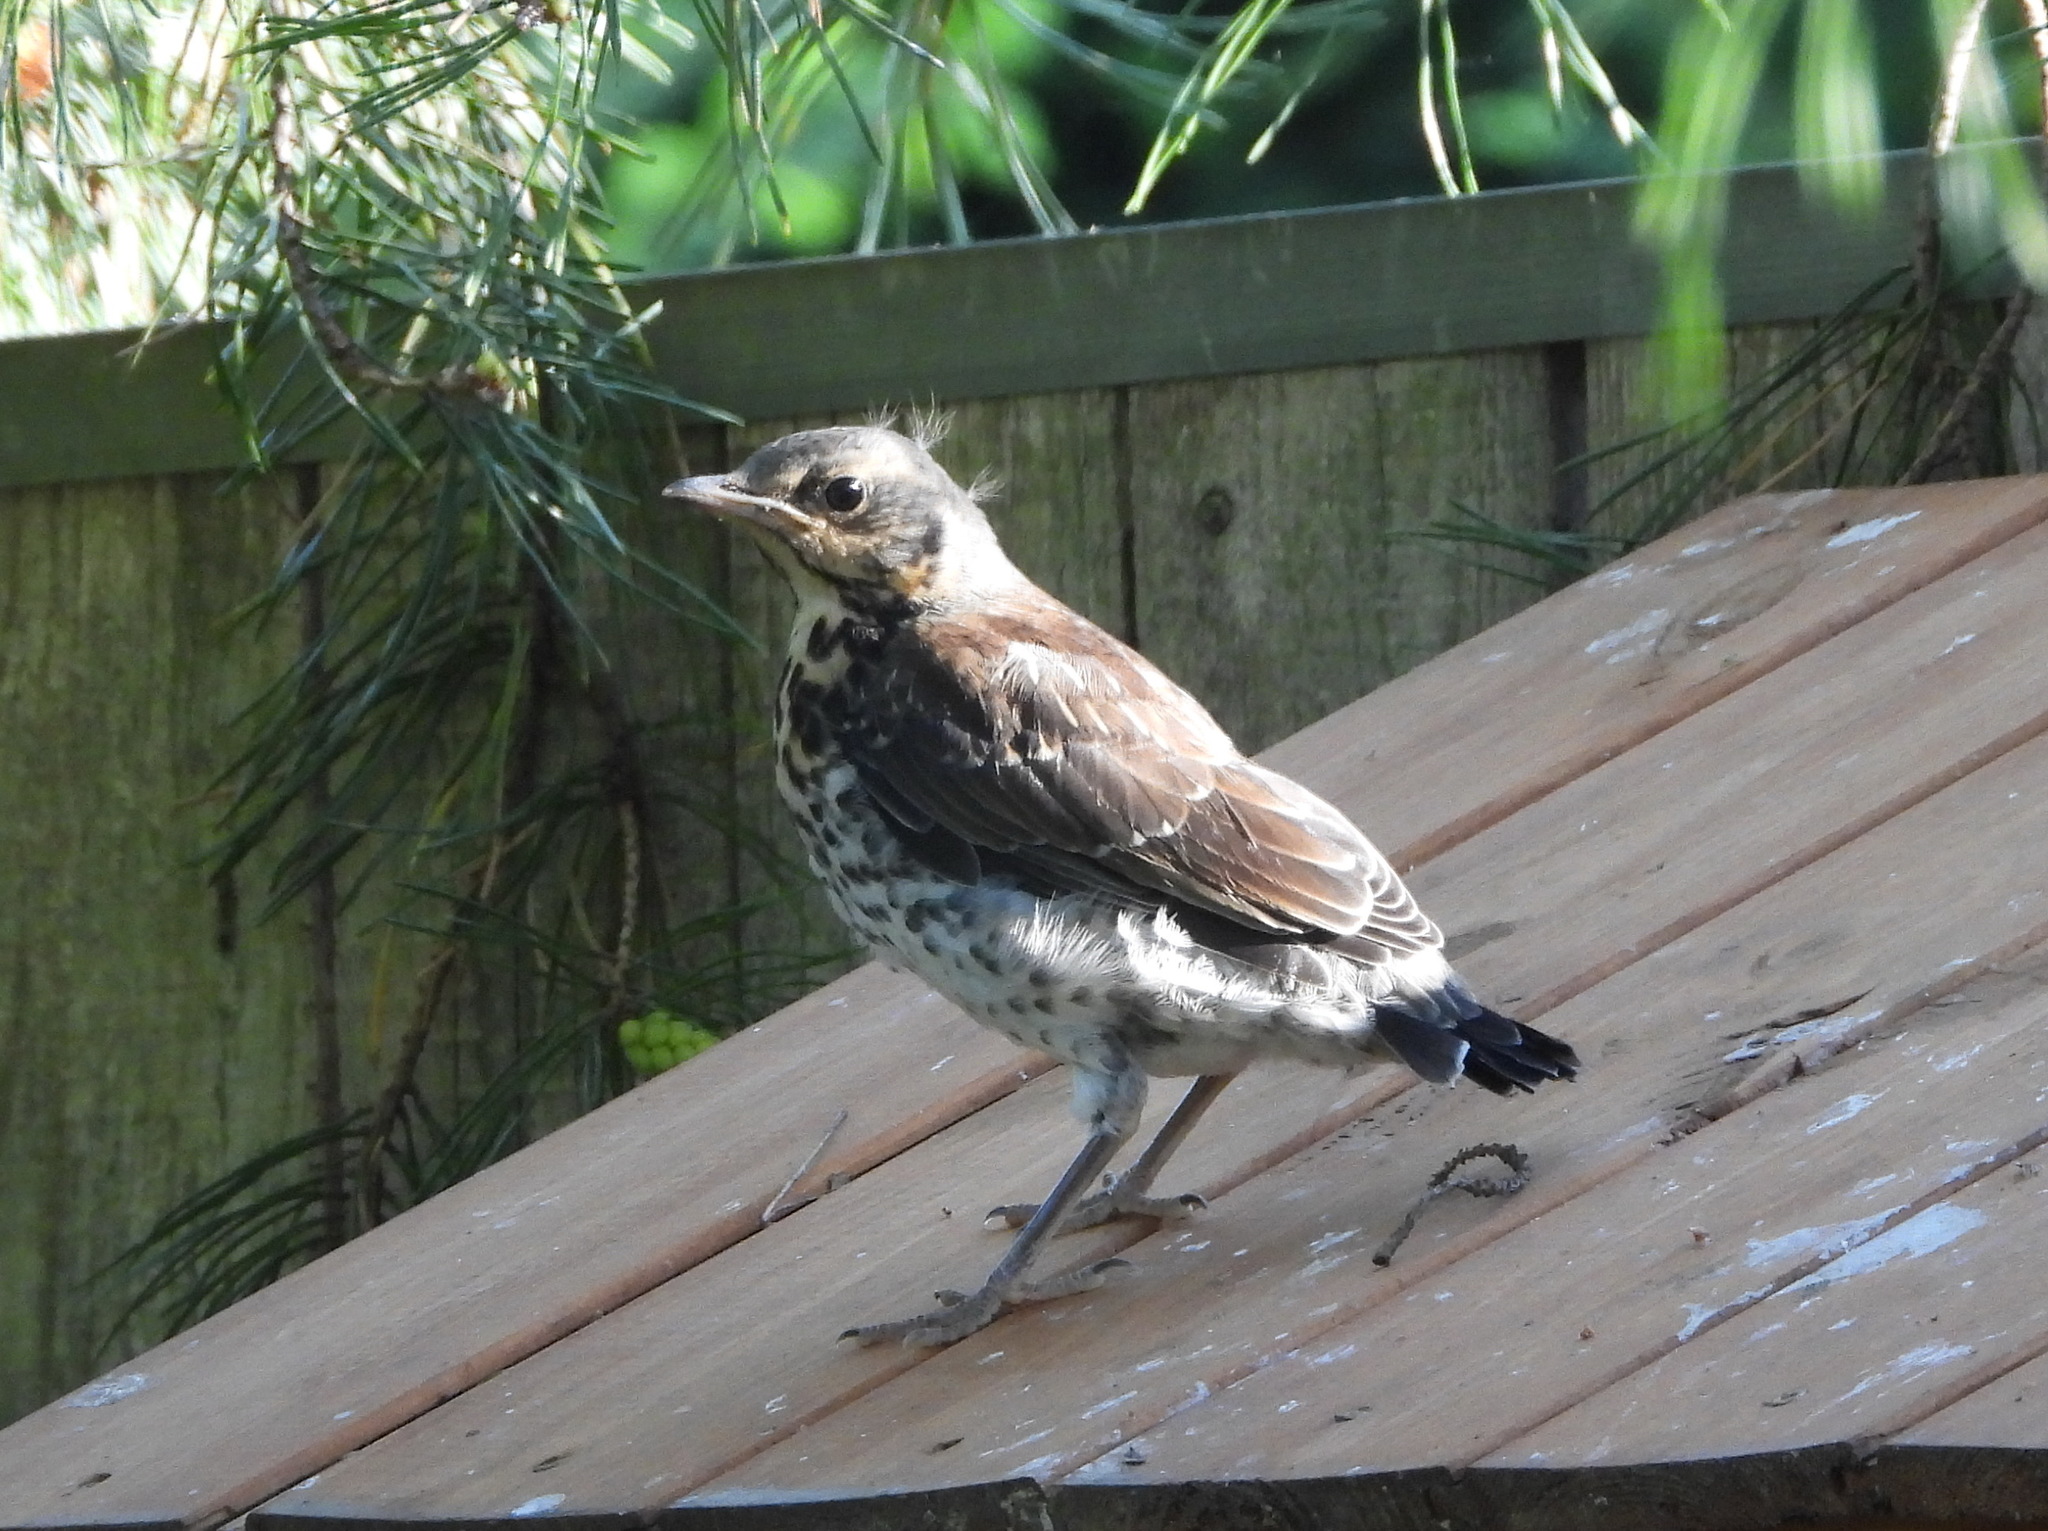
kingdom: Animalia
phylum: Chordata
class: Aves
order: Passeriformes
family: Turdidae
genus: Turdus
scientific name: Turdus pilaris
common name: Fieldfare
